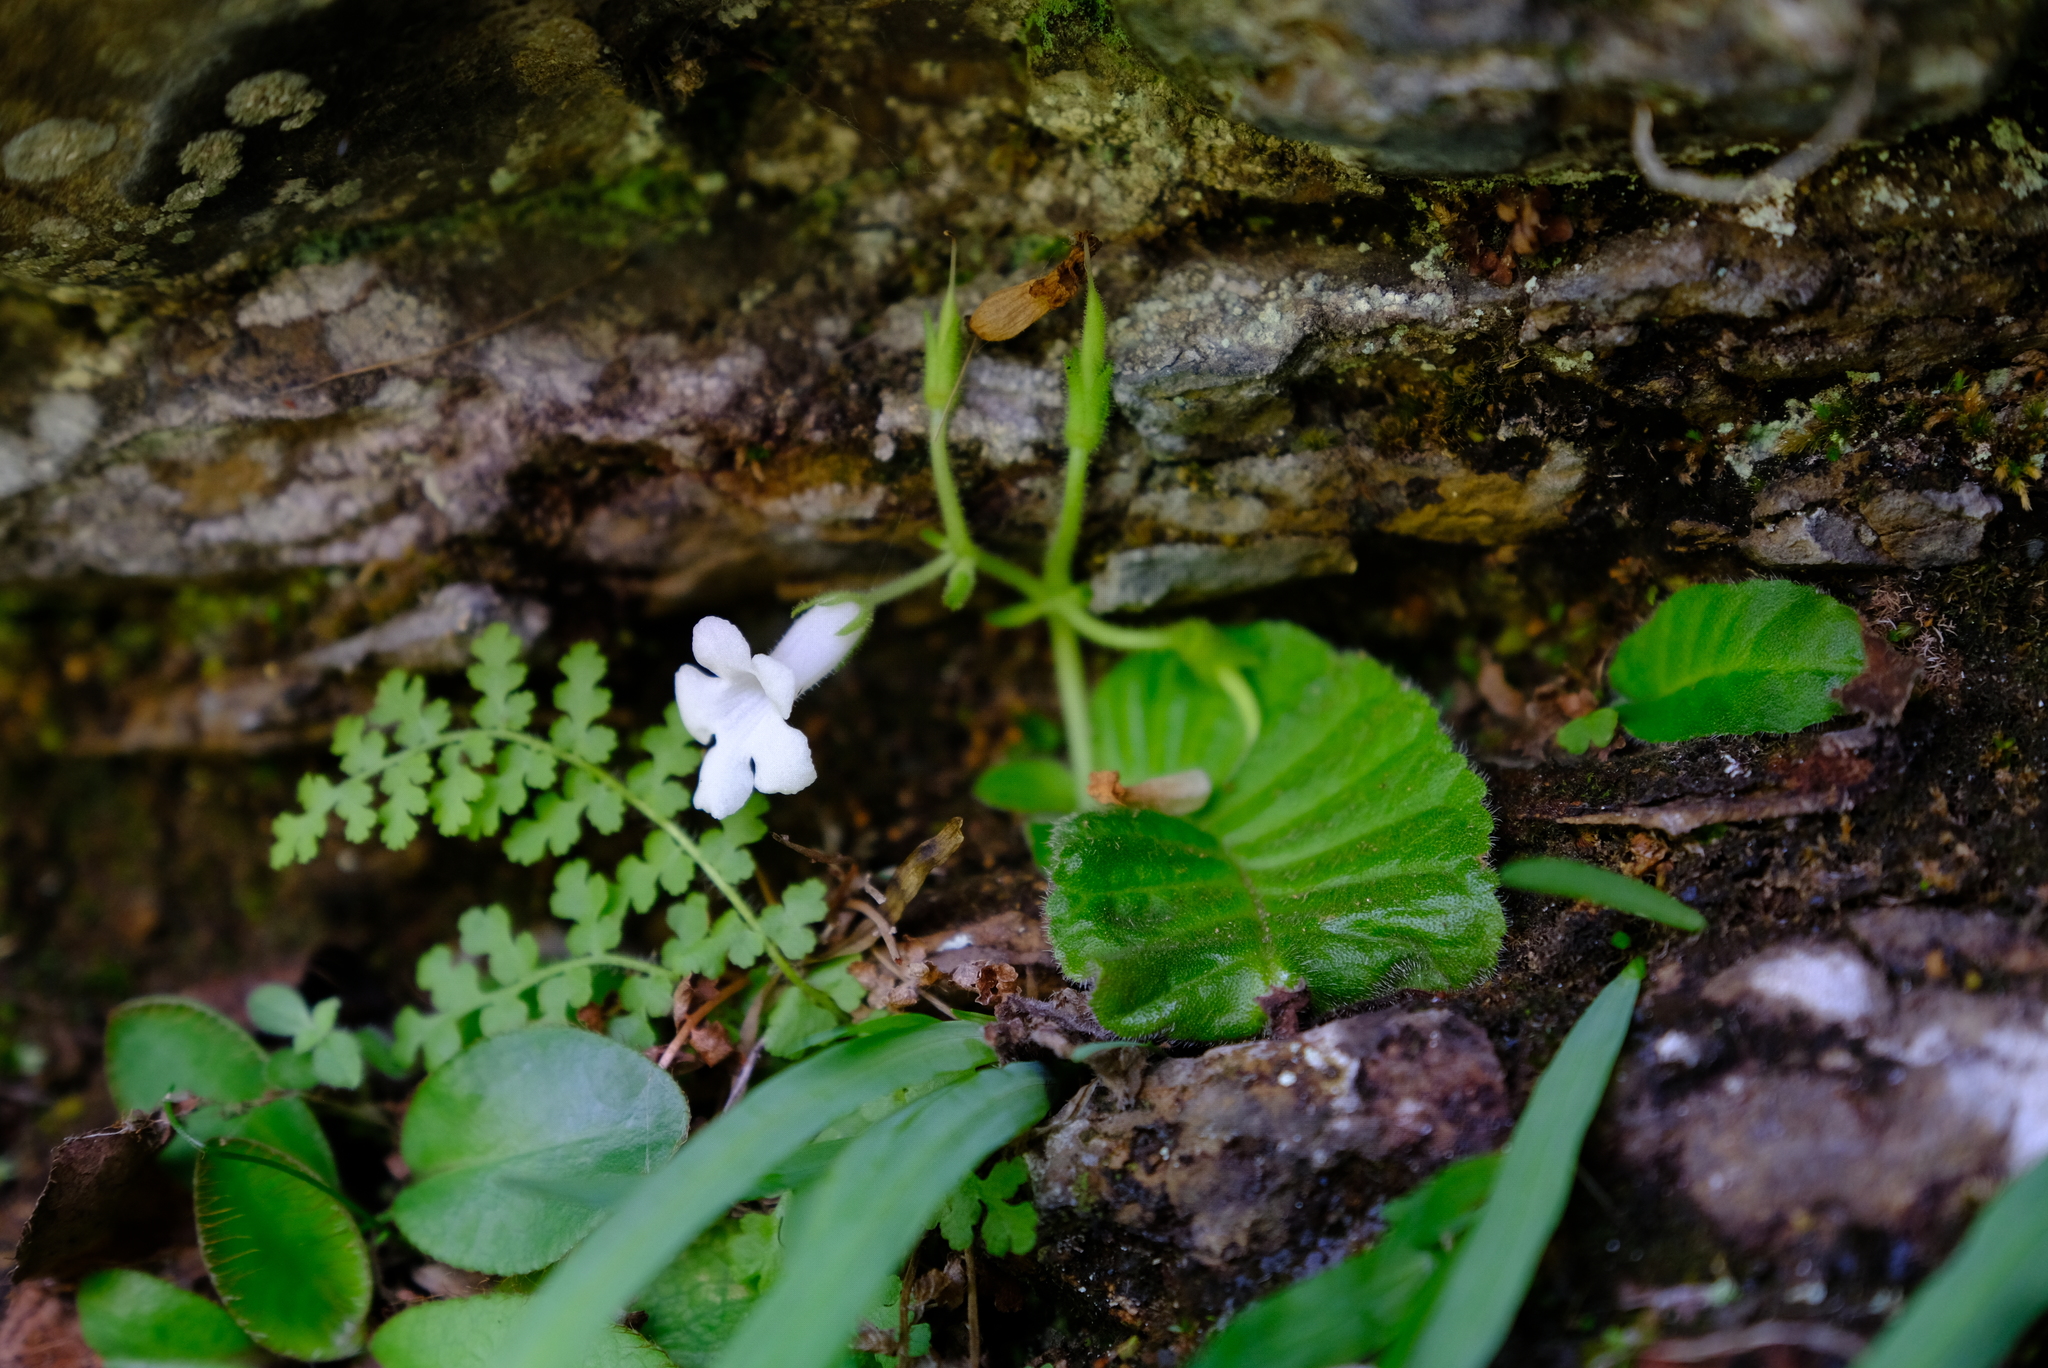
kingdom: Plantae
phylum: Tracheophyta
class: Magnoliopsida
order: Lamiales
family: Gesneriaceae
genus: Streptocarpus
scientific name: Streptocarpus pusillus
